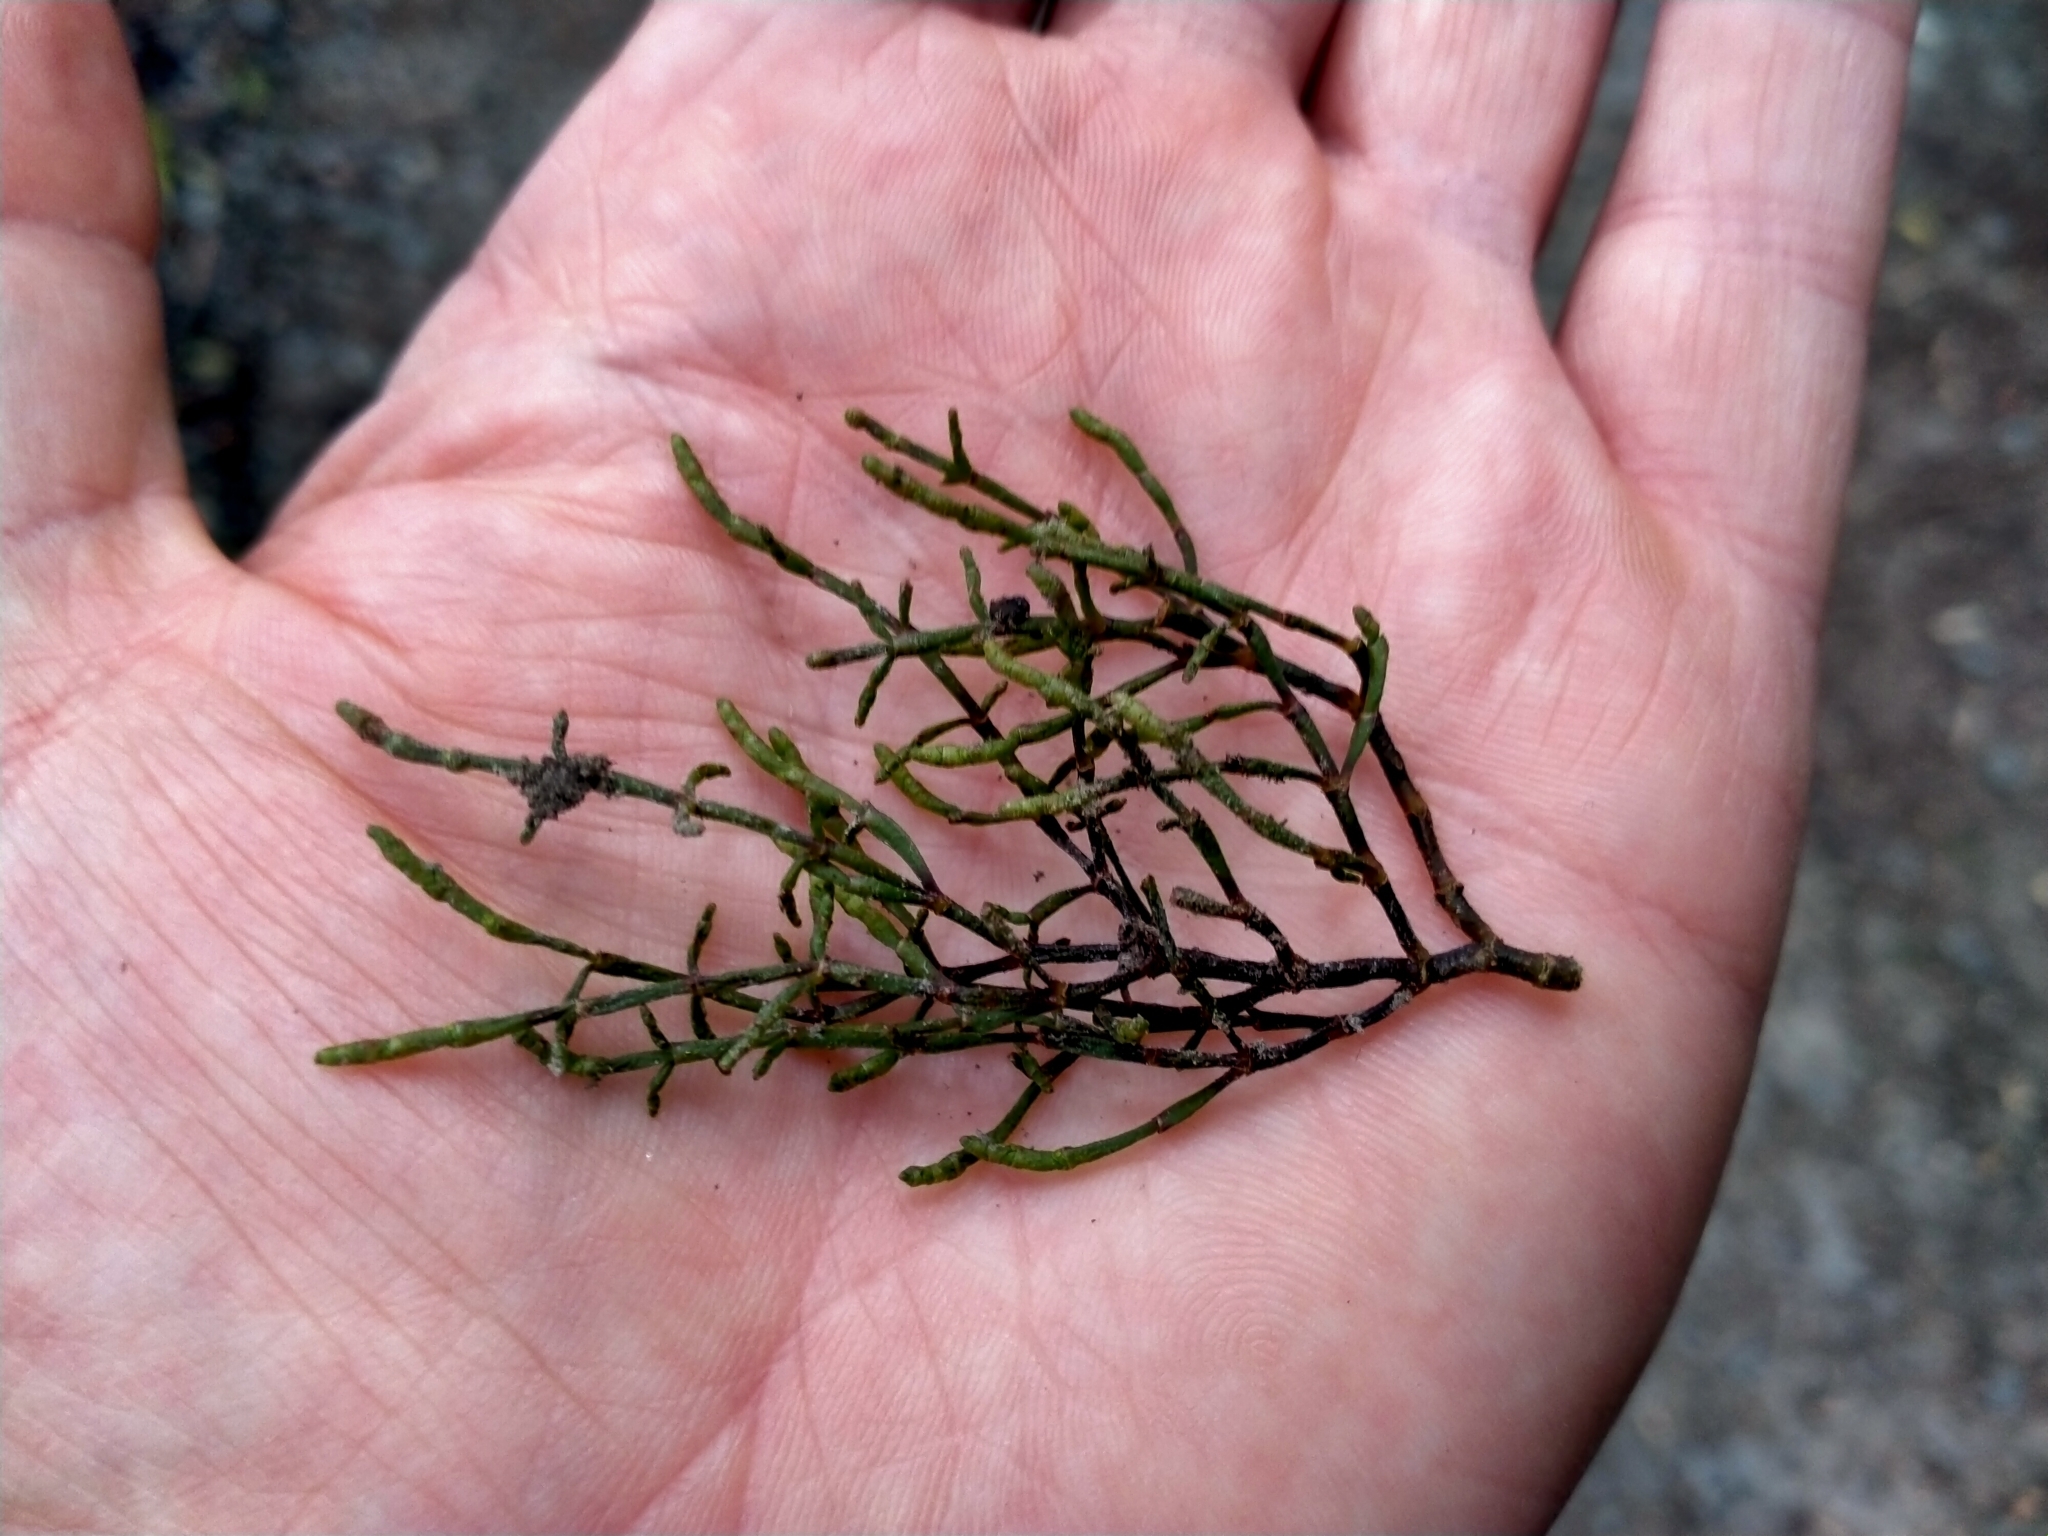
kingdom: Plantae
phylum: Tracheophyta
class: Magnoliopsida
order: Santalales
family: Viscaceae
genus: Korthalsella
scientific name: Korthalsella salicornioides
